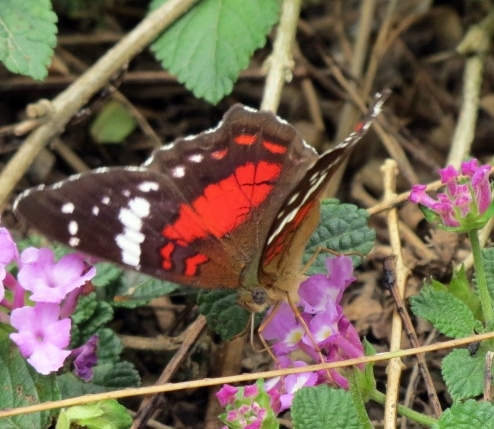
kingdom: Animalia
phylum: Arthropoda
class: Insecta
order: Lepidoptera
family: Nymphalidae
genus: Anartia
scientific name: Anartia amathea
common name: Red peacock
